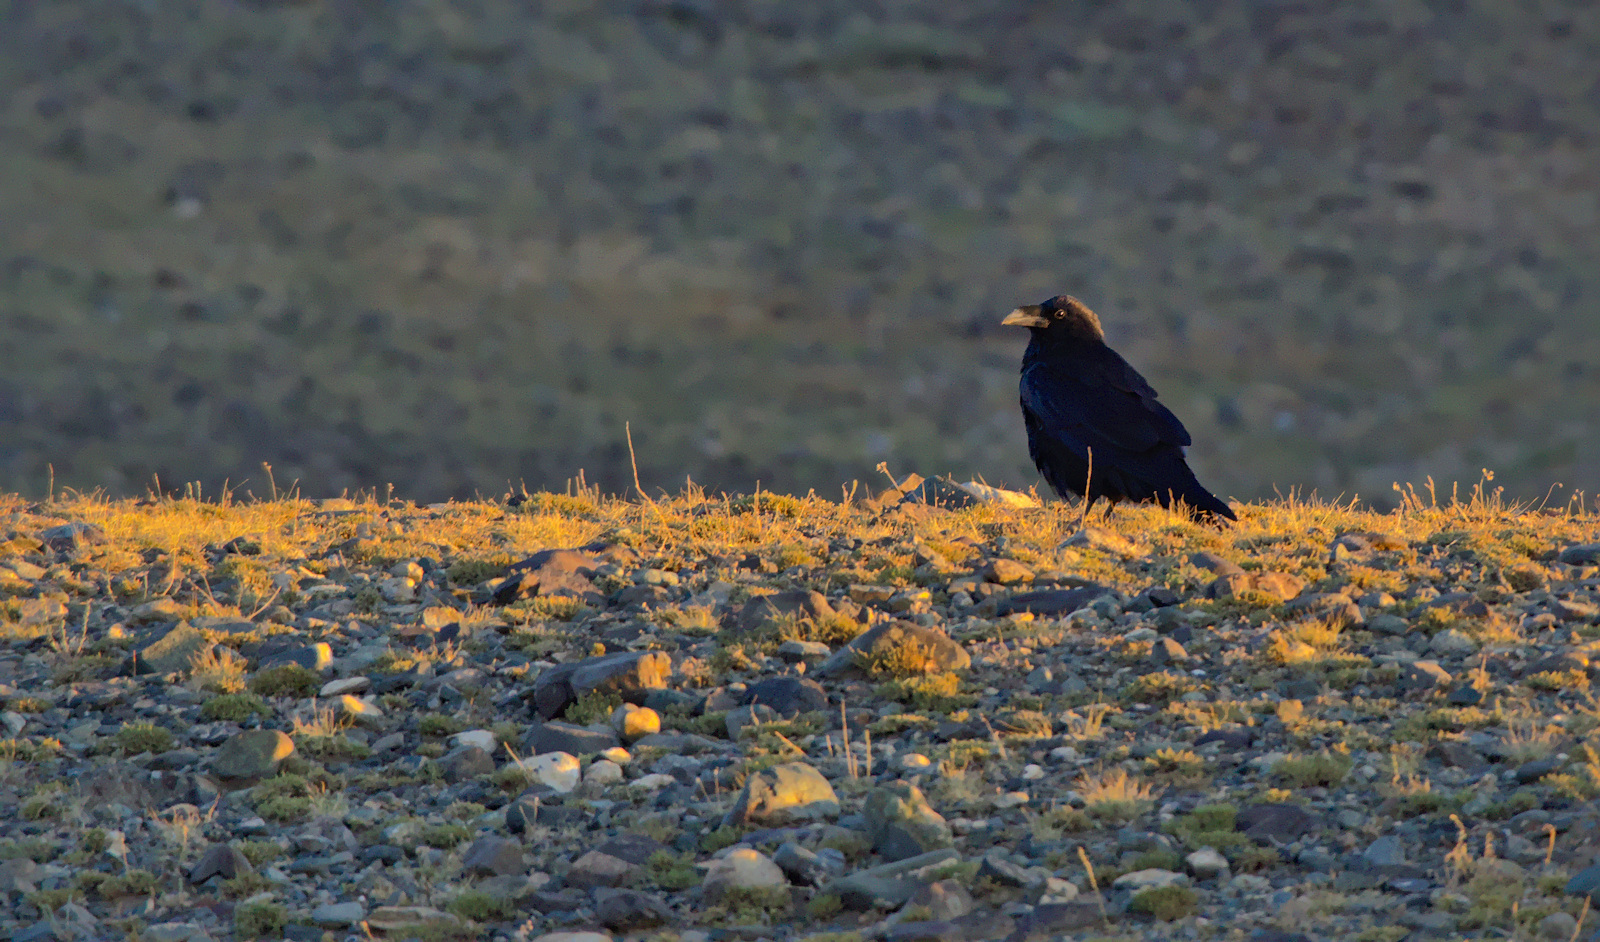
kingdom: Animalia
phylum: Chordata
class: Aves
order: Passeriformes
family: Corvidae
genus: Corvus
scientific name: Corvus corax
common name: Common raven
